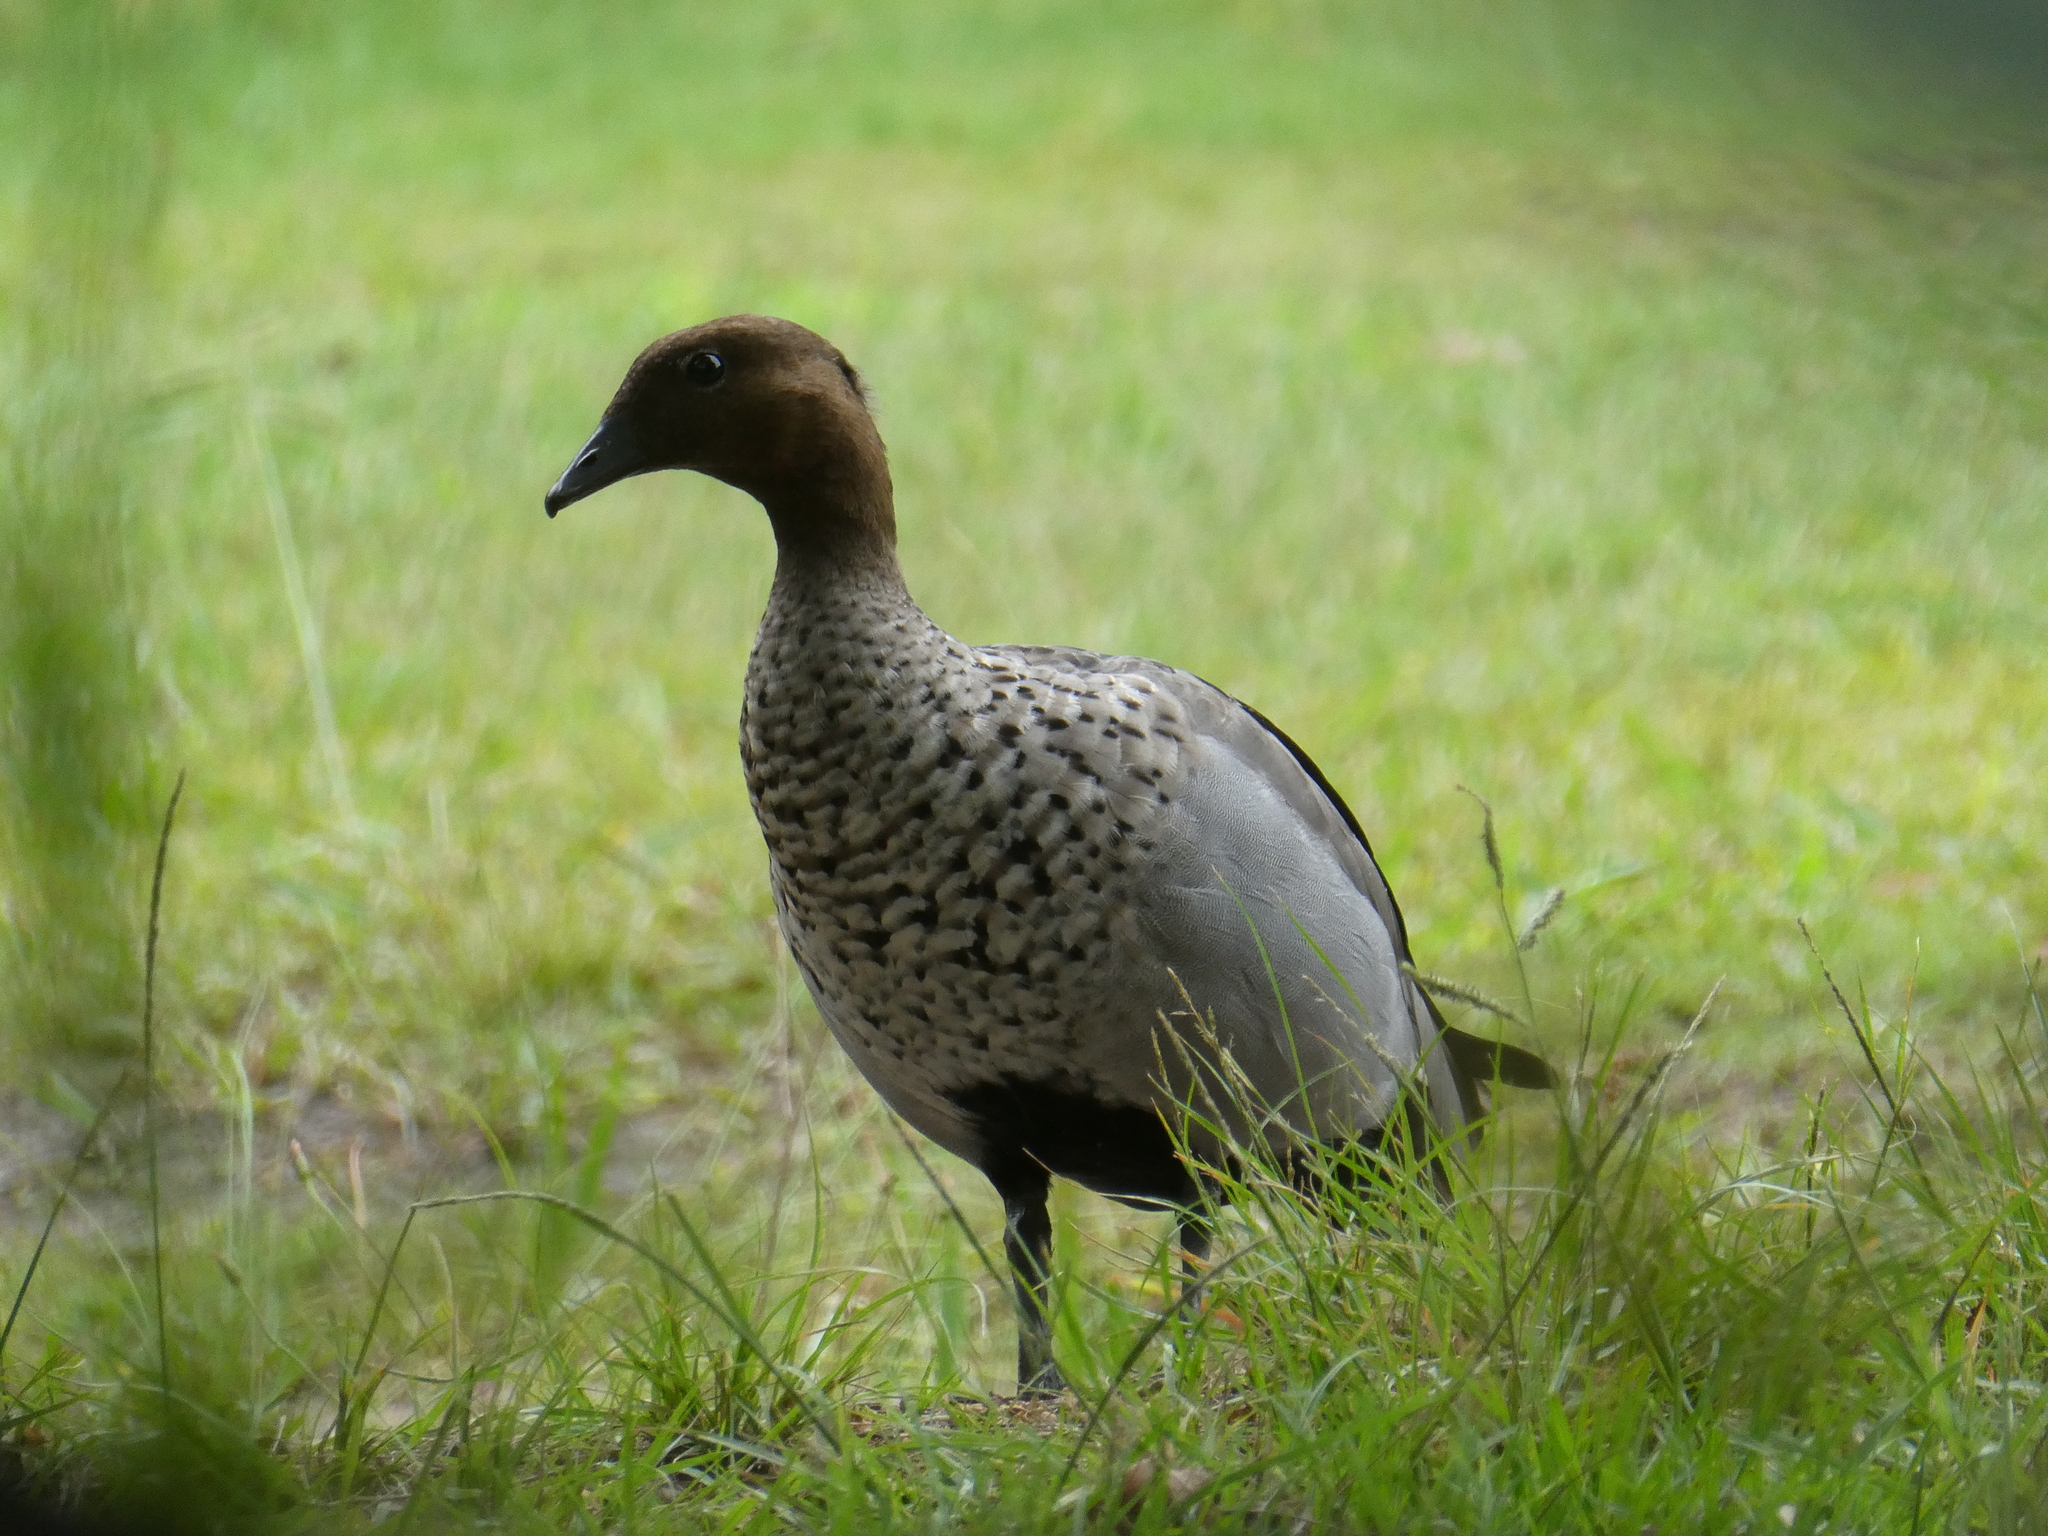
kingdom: Animalia
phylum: Chordata
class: Aves
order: Anseriformes
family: Anatidae
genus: Chenonetta
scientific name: Chenonetta jubata
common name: Maned duck
